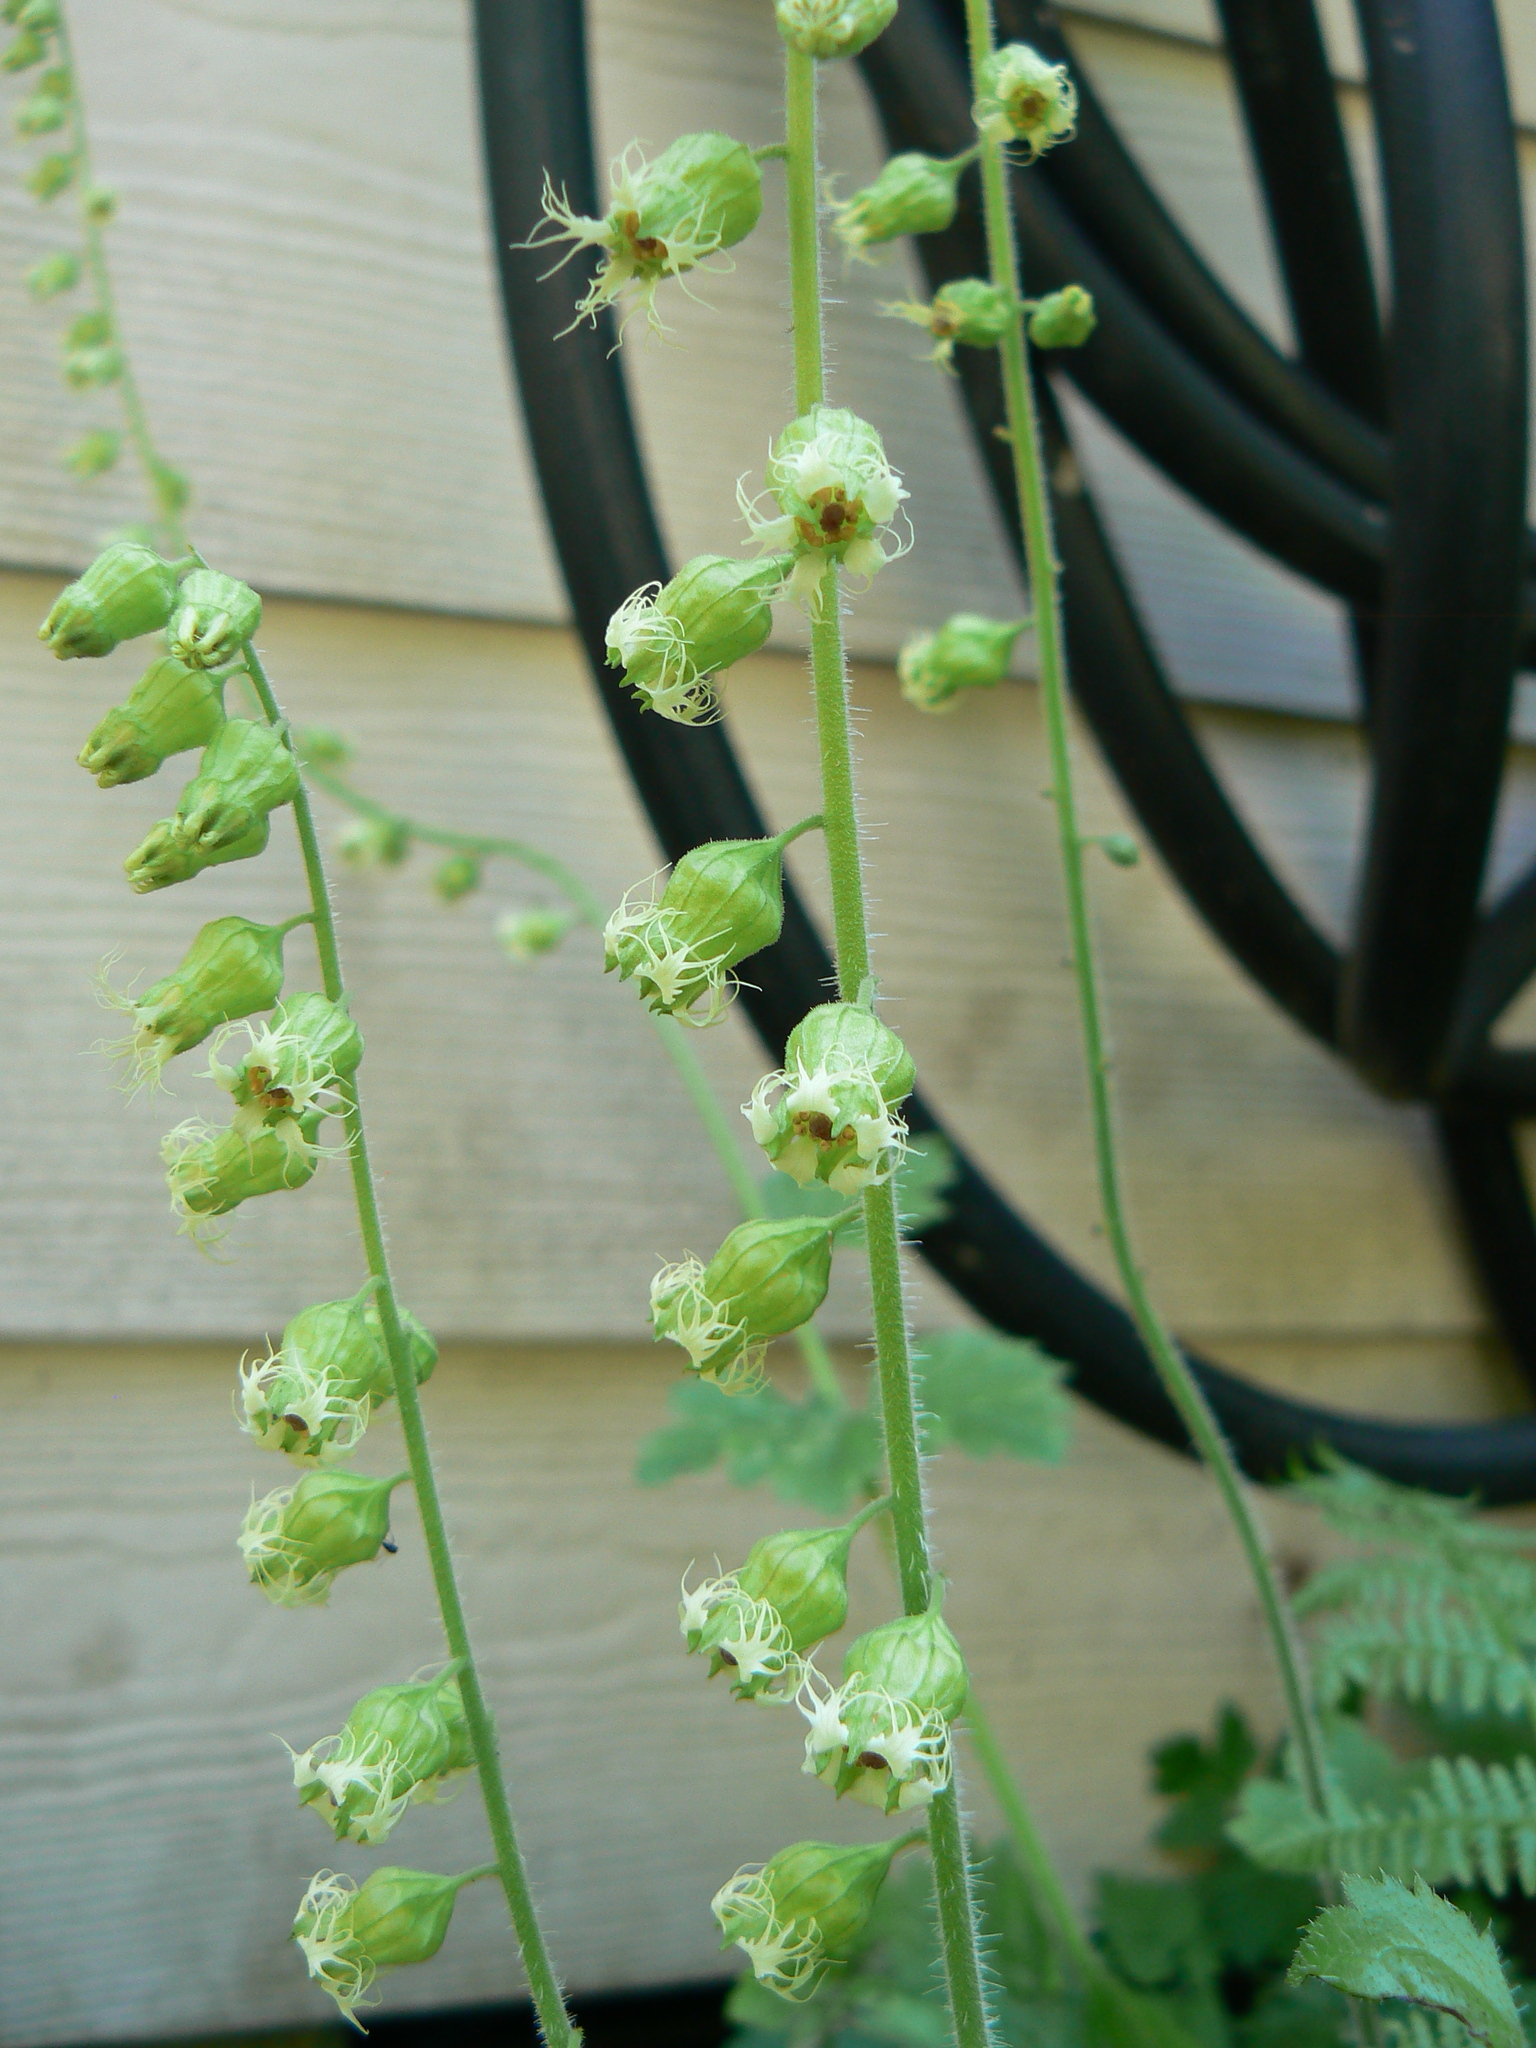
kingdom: Plantae
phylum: Tracheophyta
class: Magnoliopsida
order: Saxifragales
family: Saxifragaceae
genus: Tellima
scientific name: Tellima grandiflora
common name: Fringecups
